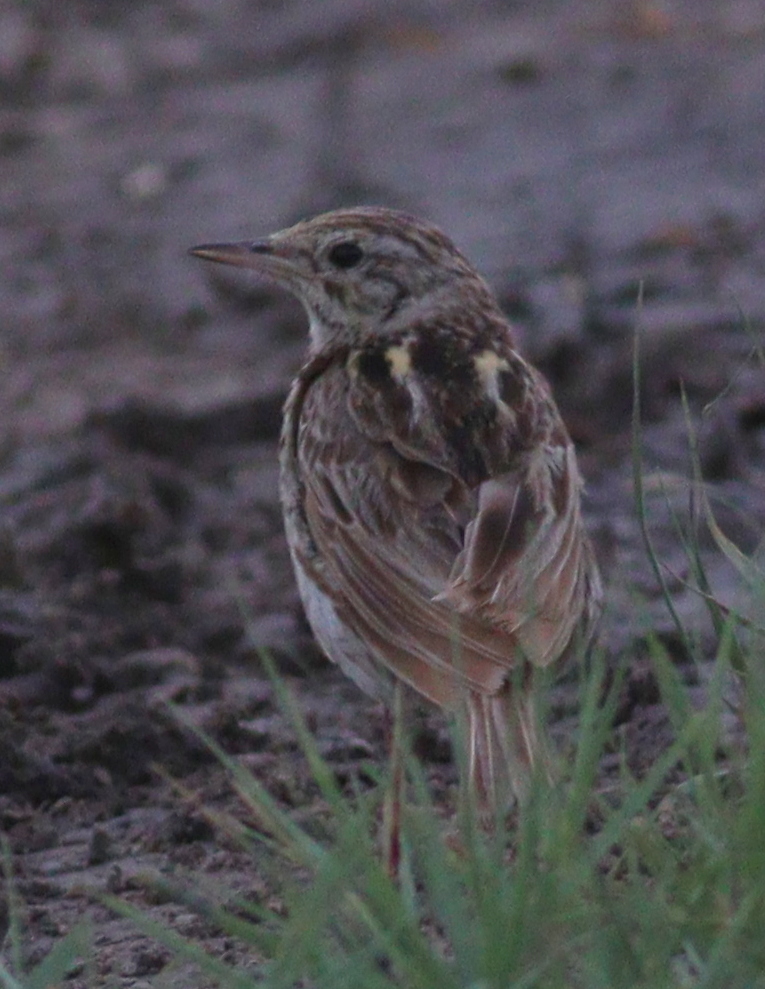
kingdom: Animalia
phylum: Chordata
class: Aves
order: Passeriformes
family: Motacillidae
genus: Anthus
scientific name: Anthus correndera
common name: Correndera pipit
